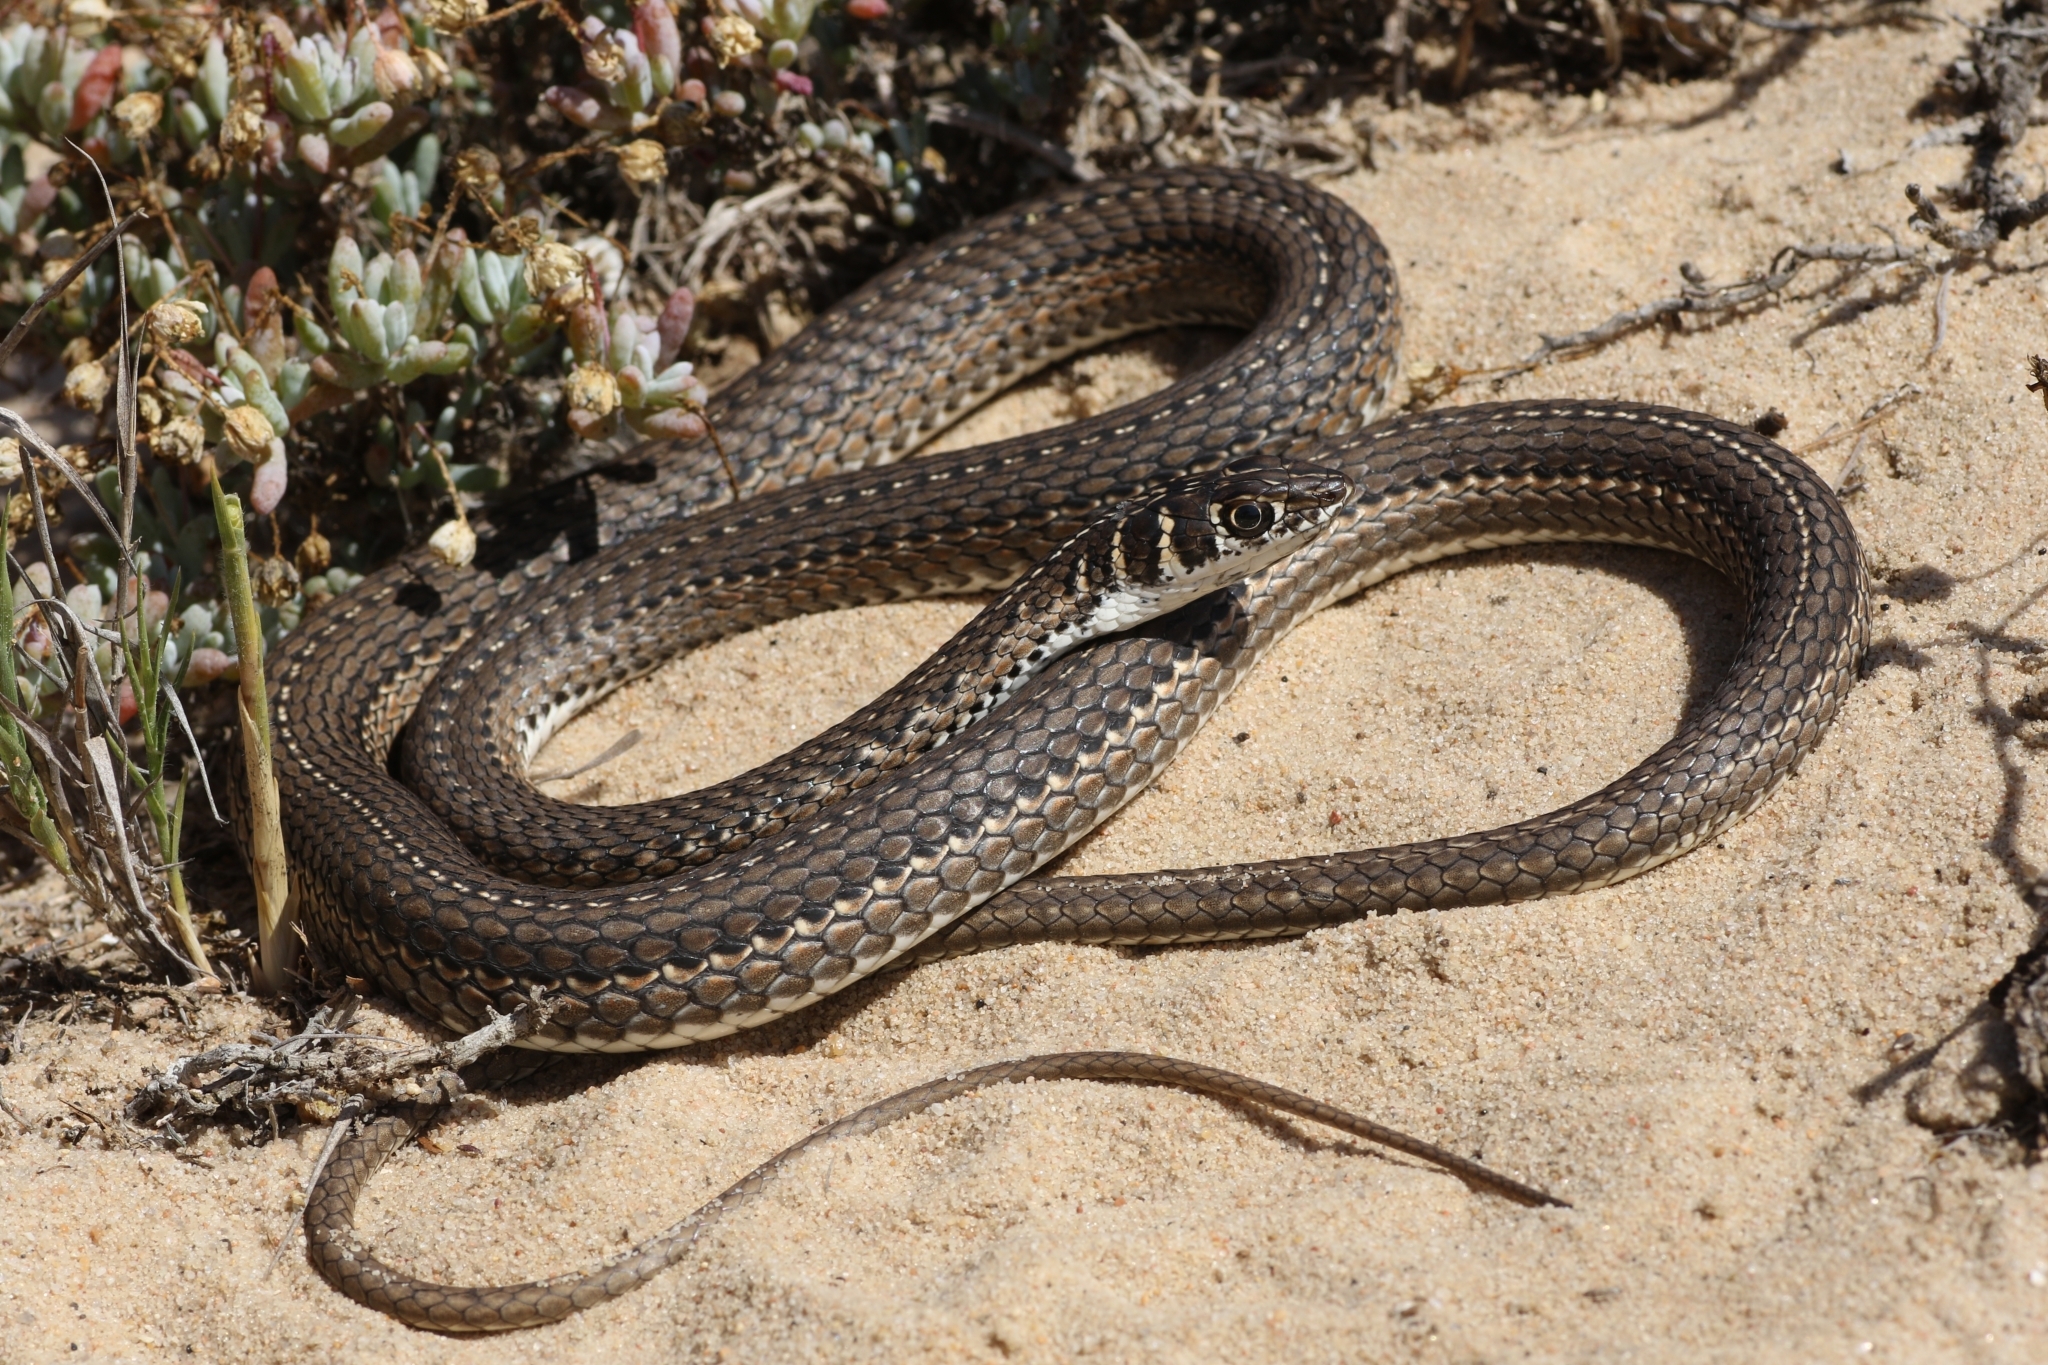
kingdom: Animalia
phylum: Chordata
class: Squamata
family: Psammophiidae
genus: Psammophis
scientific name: Psammophis leightoni
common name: Cape sand snake
